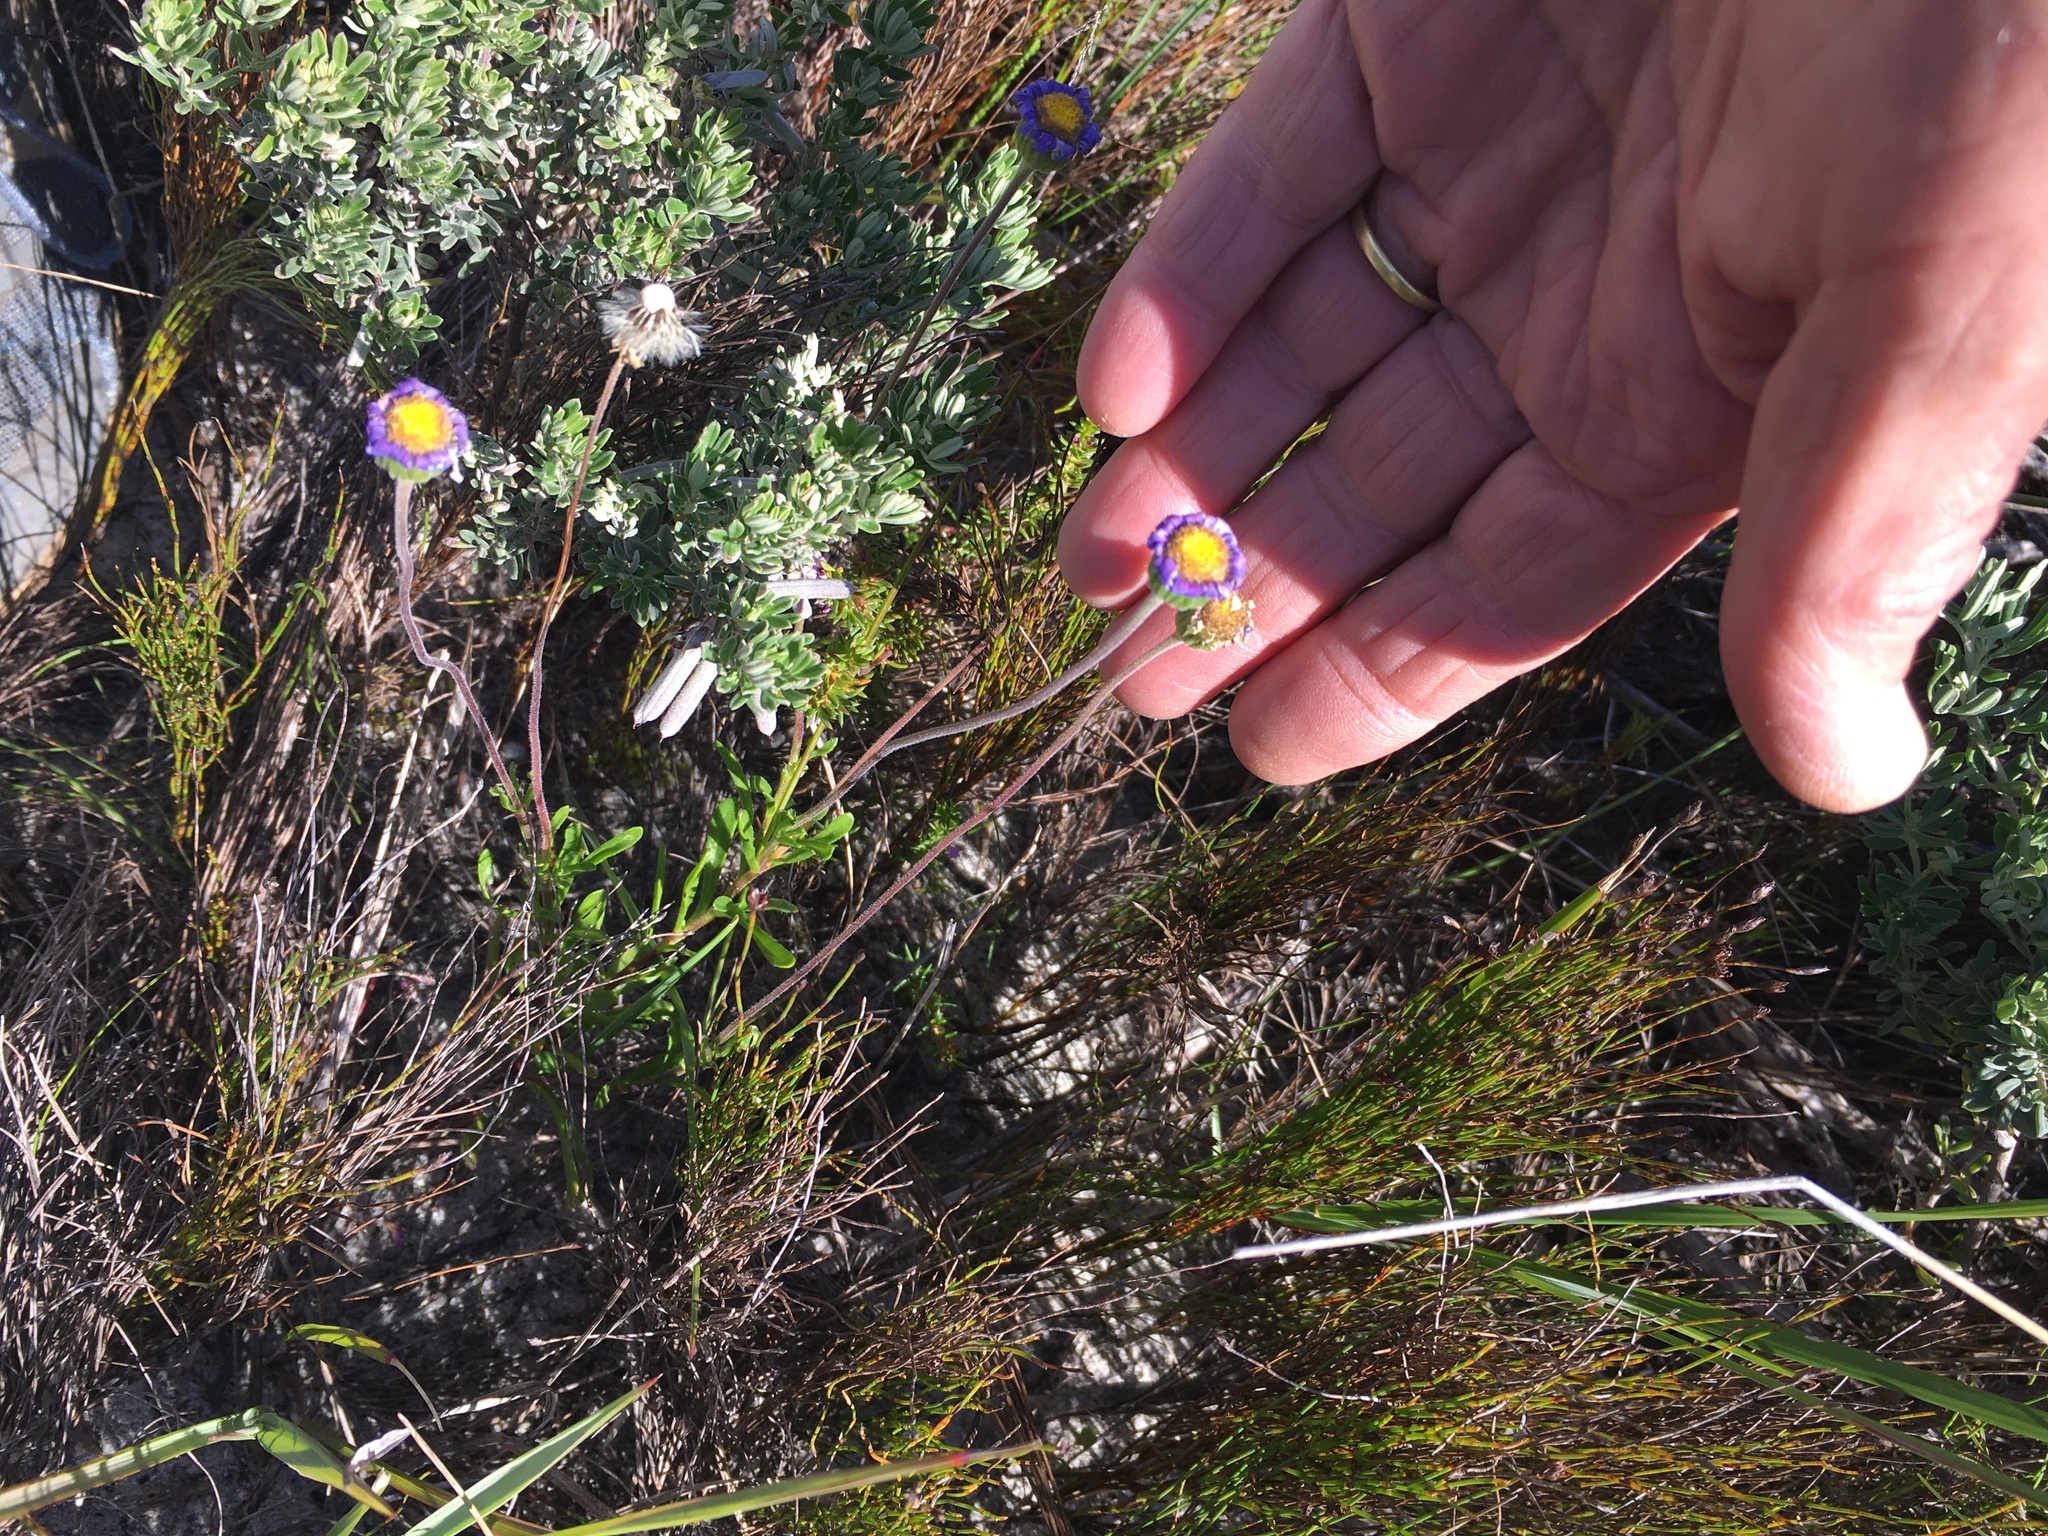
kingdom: Plantae
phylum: Tracheophyta
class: Magnoliopsida
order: Asterales
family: Asteraceae
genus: Felicia
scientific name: Felicia amoena
